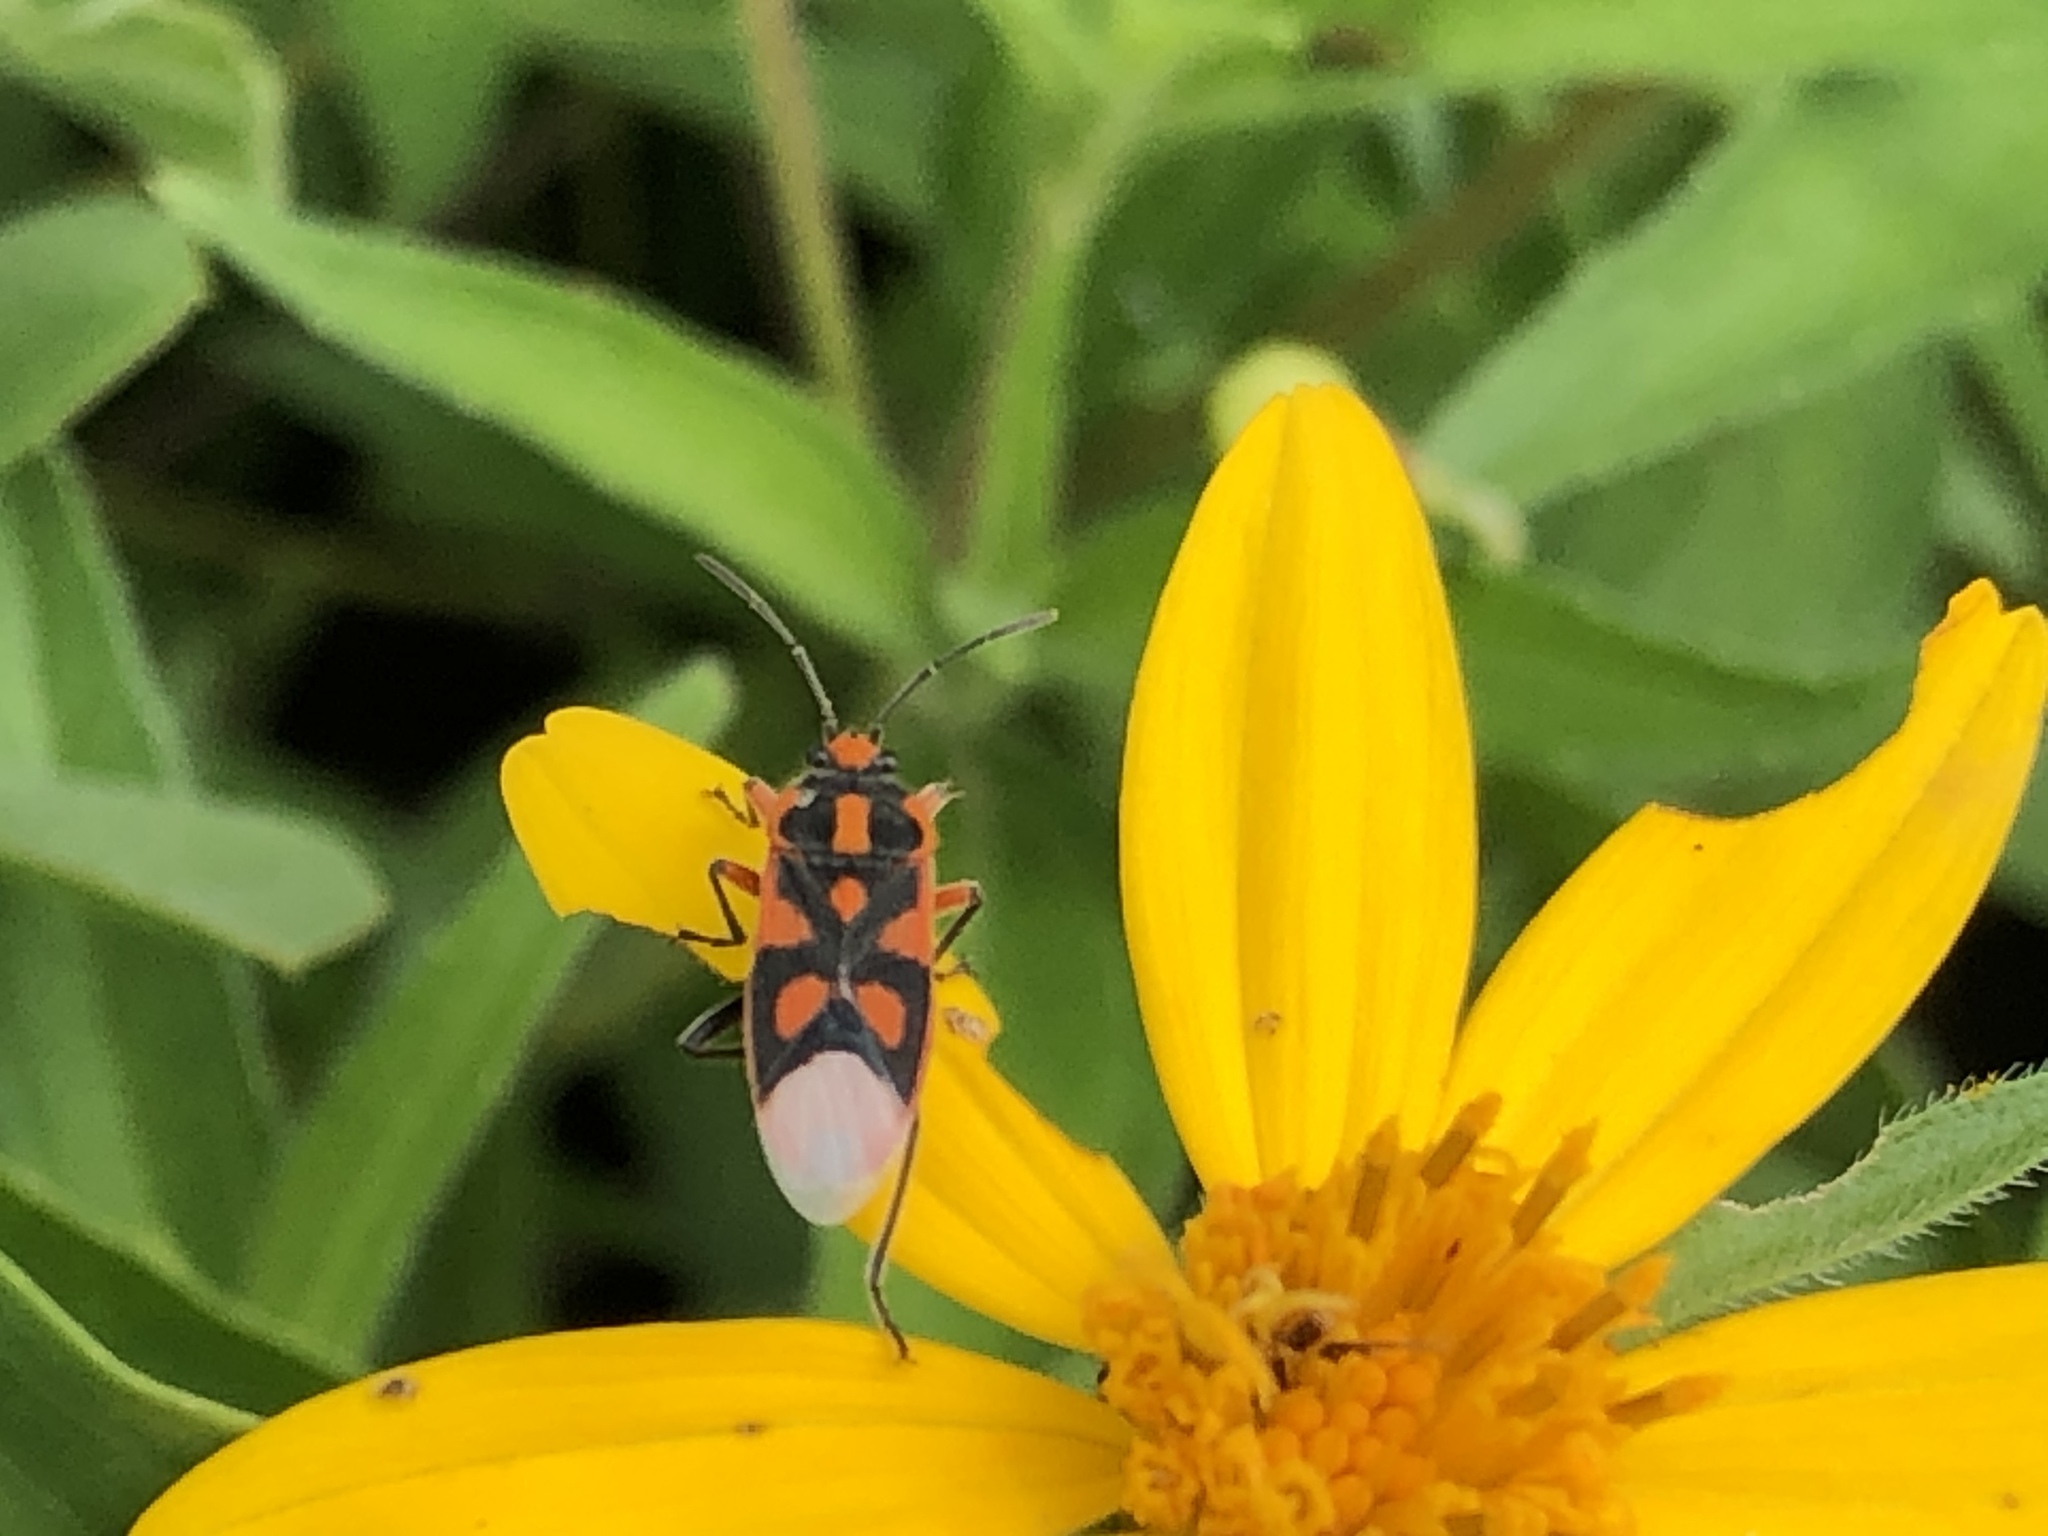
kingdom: Animalia
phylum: Arthropoda
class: Insecta
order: Hemiptera
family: Lygaeidae
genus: Graptostethus
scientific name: Graptostethus electus
